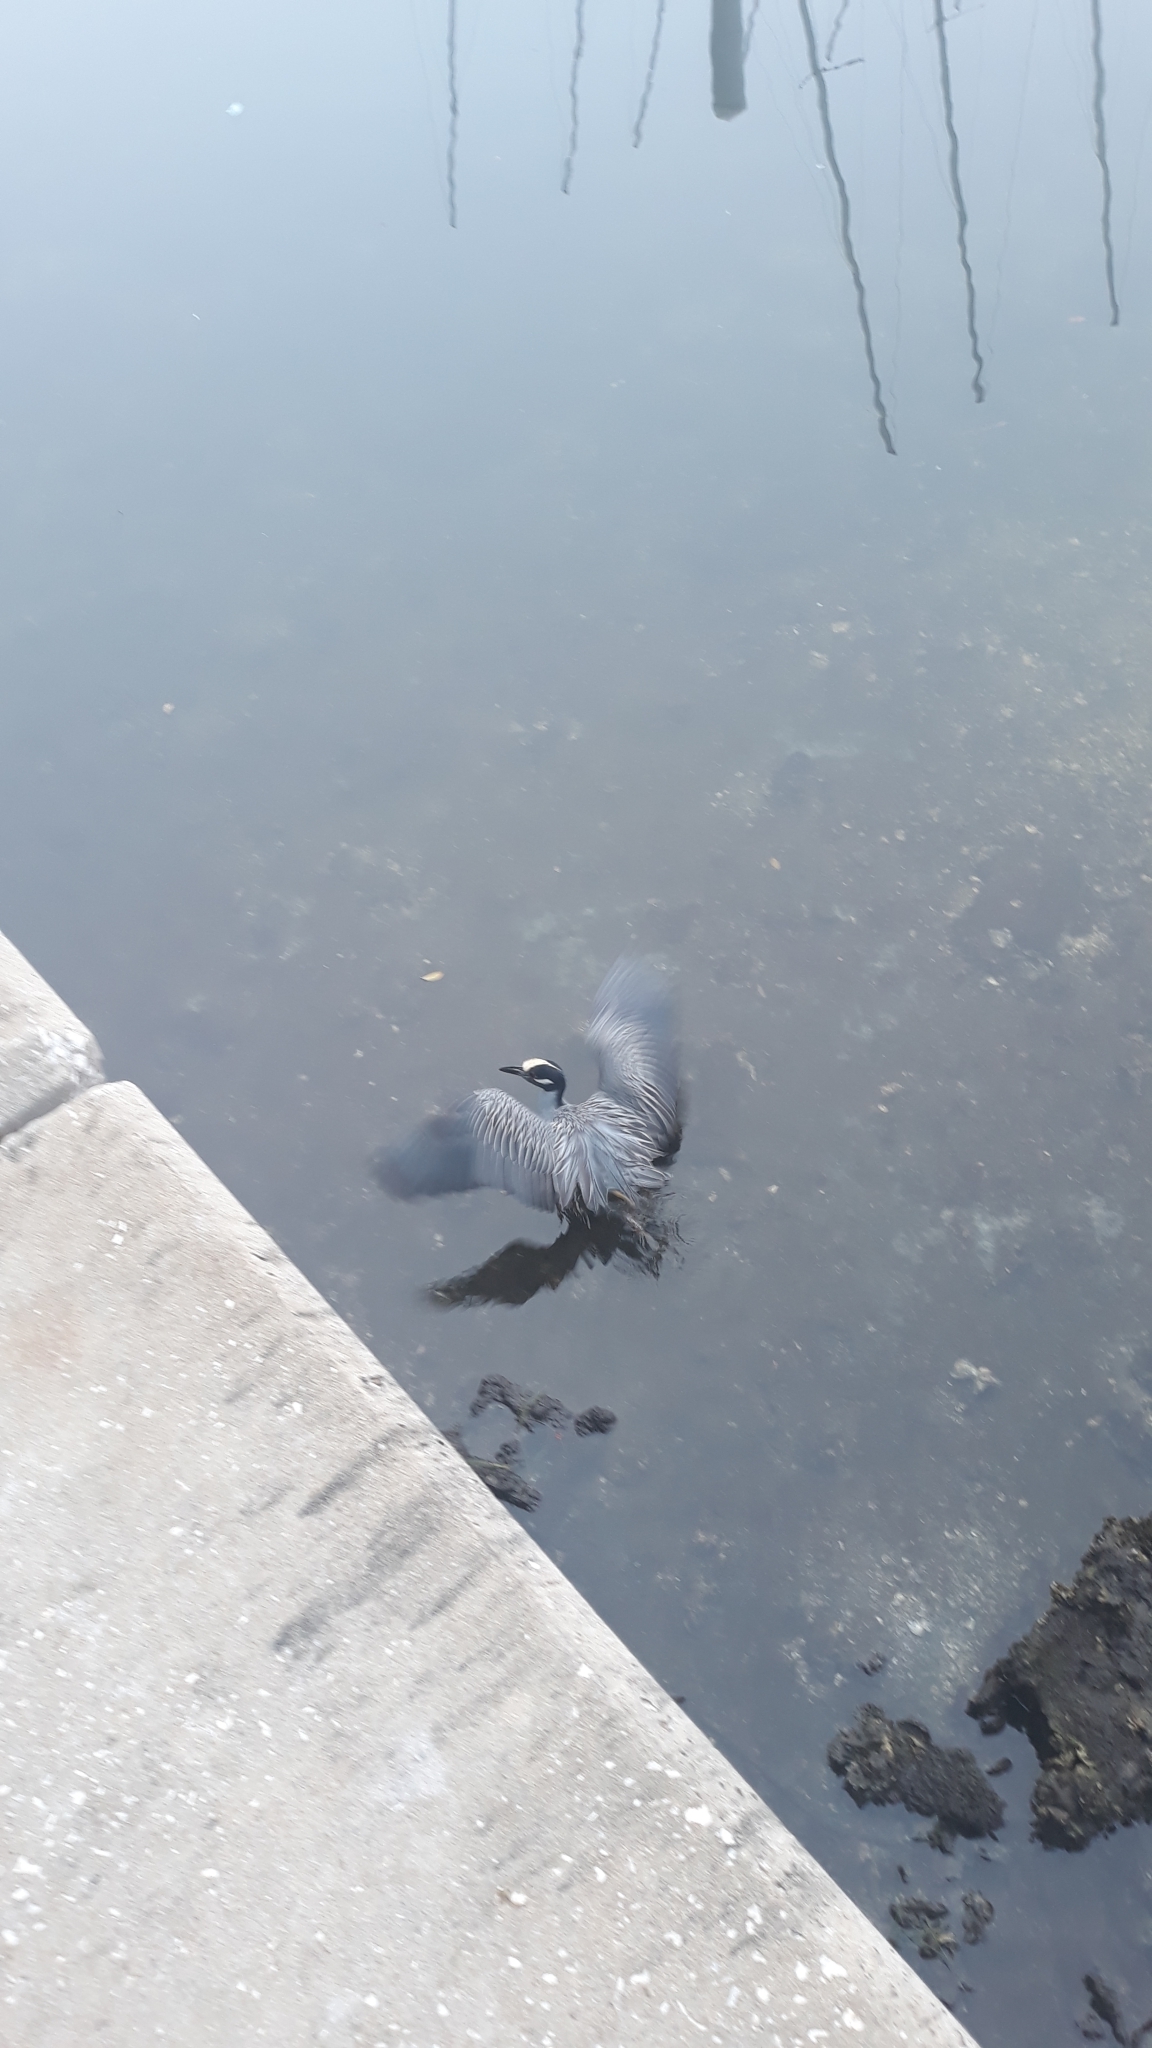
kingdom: Animalia
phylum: Chordata
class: Aves
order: Pelecaniformes
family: Ardeidae
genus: Nyctanassa
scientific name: Nyctanassa violacea
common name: Yellow-crowned night heron
